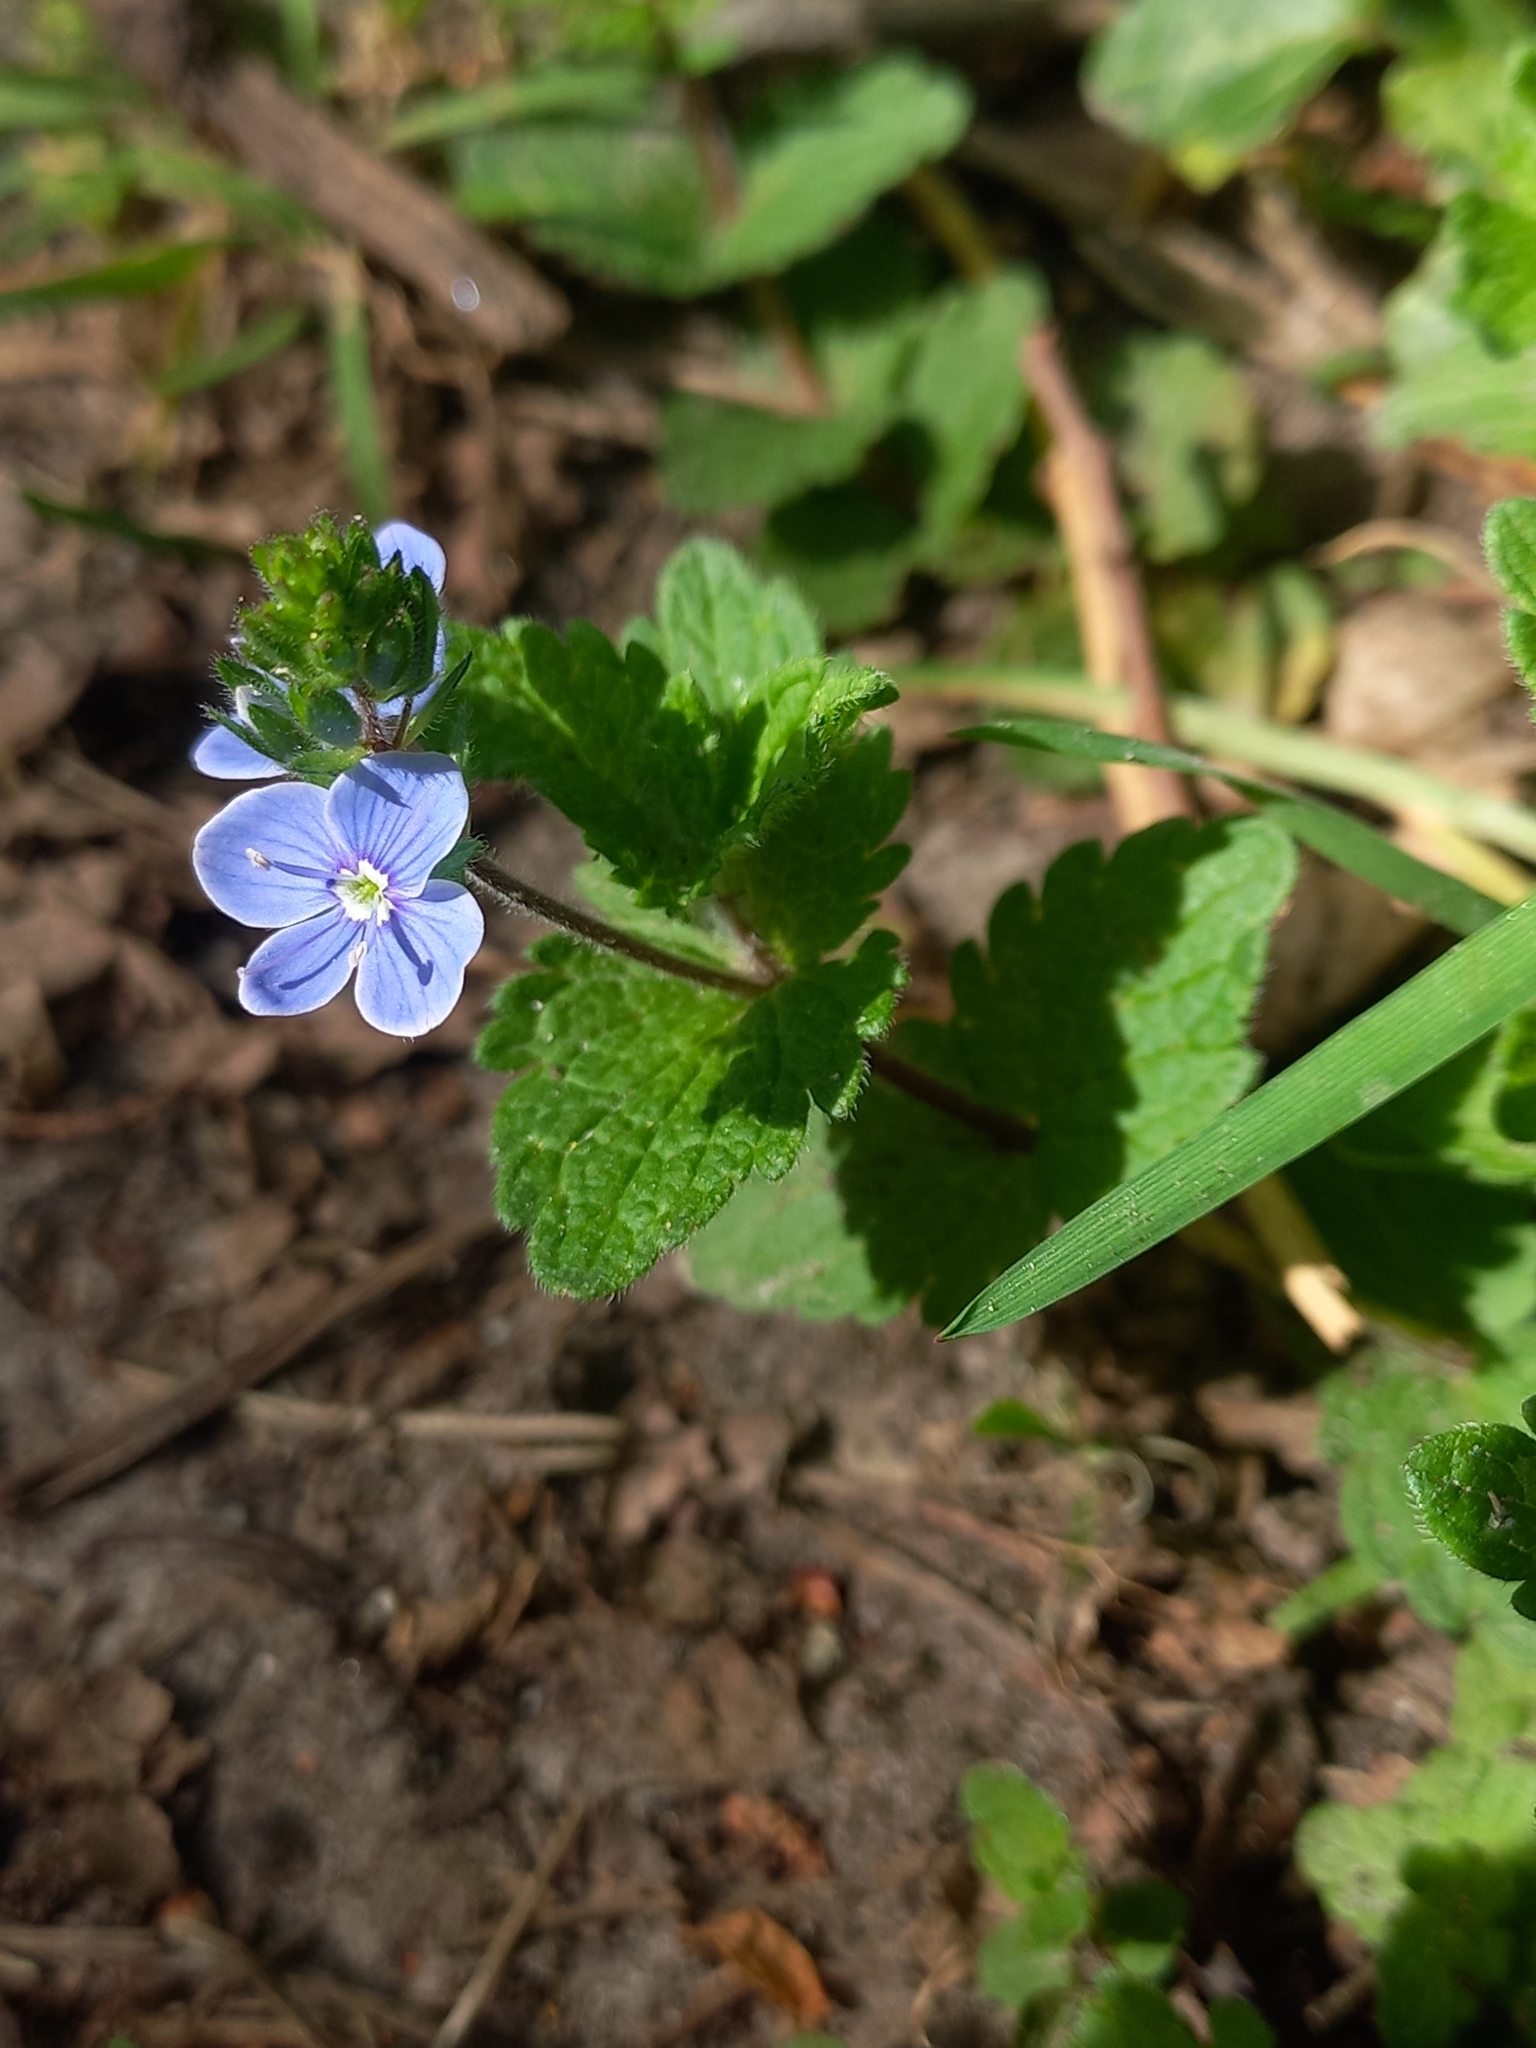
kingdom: Plantae
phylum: Tracheophyta
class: Magnoliopsida
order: Lamiales
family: Plantaginaceae
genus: Veronica
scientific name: Veronica chamaedrys
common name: Germander speedwell
